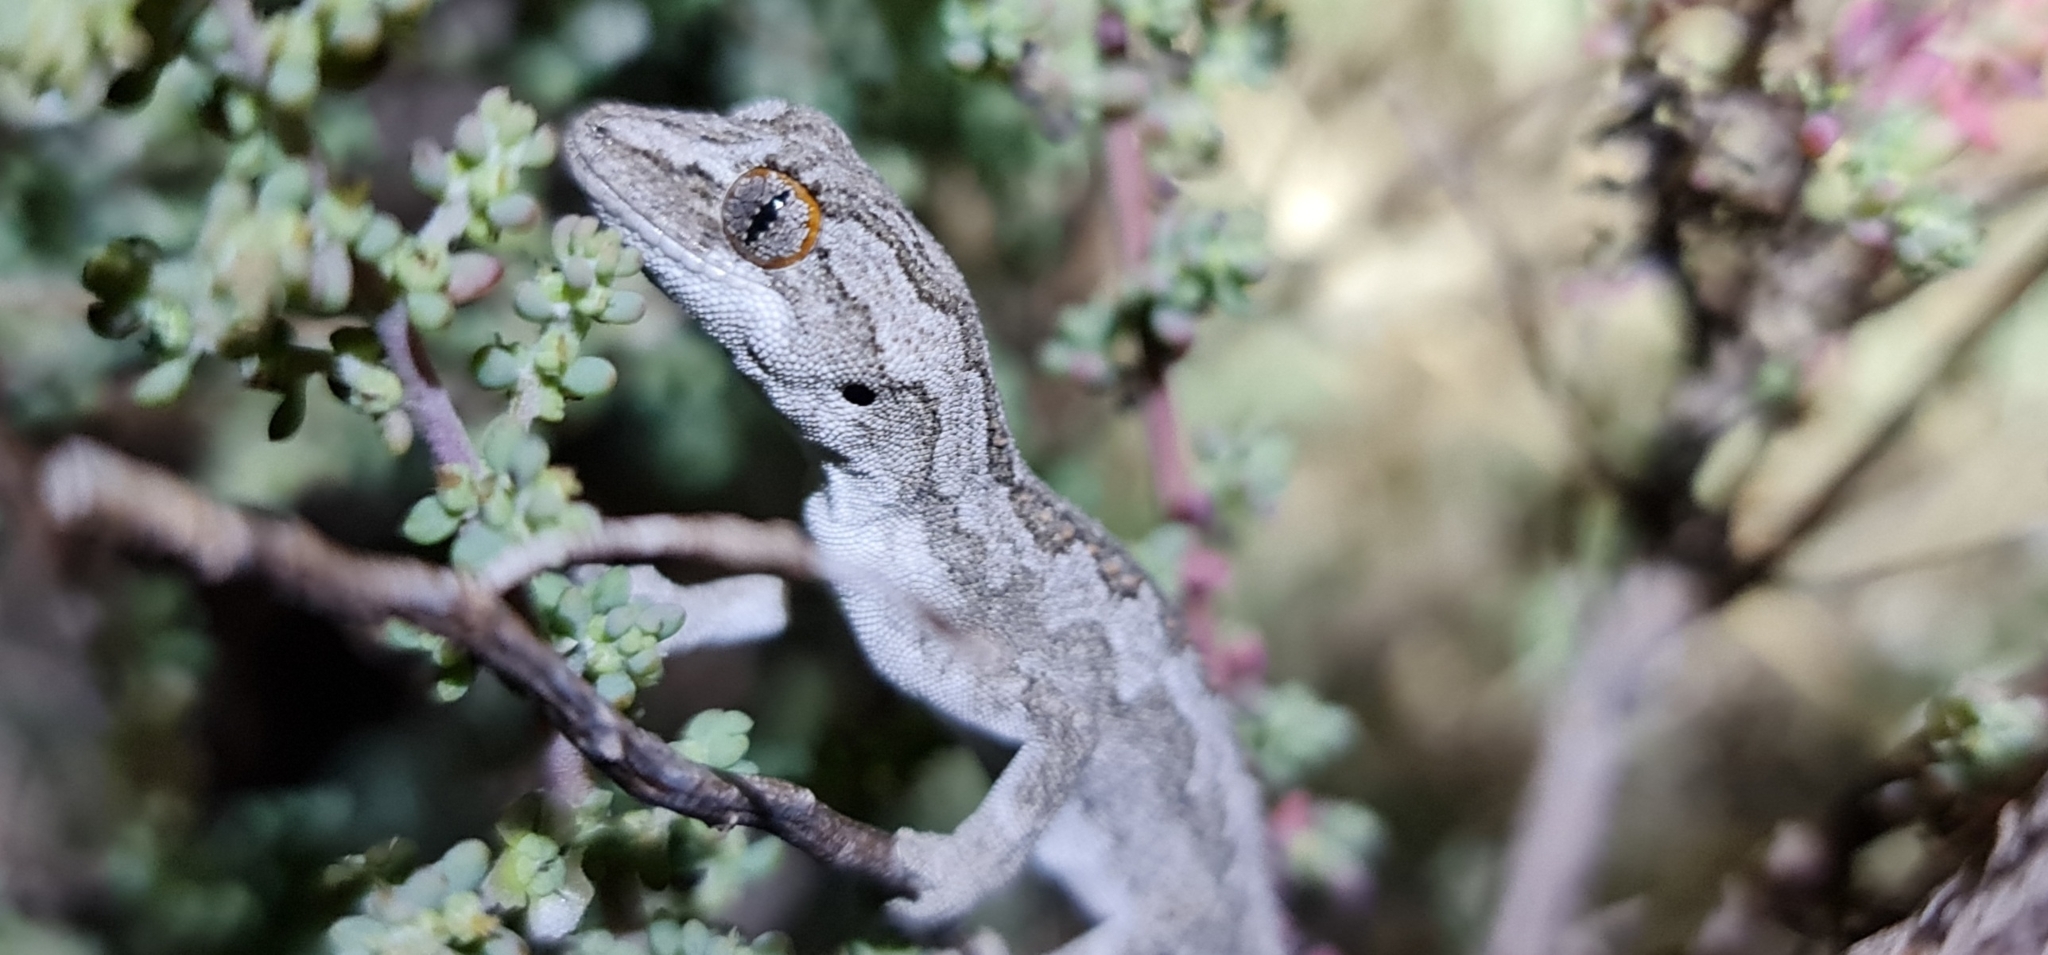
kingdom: Animalia
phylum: Chordata
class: Squamata
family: Diplodactylidae
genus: Strophurus
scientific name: Strophurus intermedius
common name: Eastern spiny-tailed gecko
